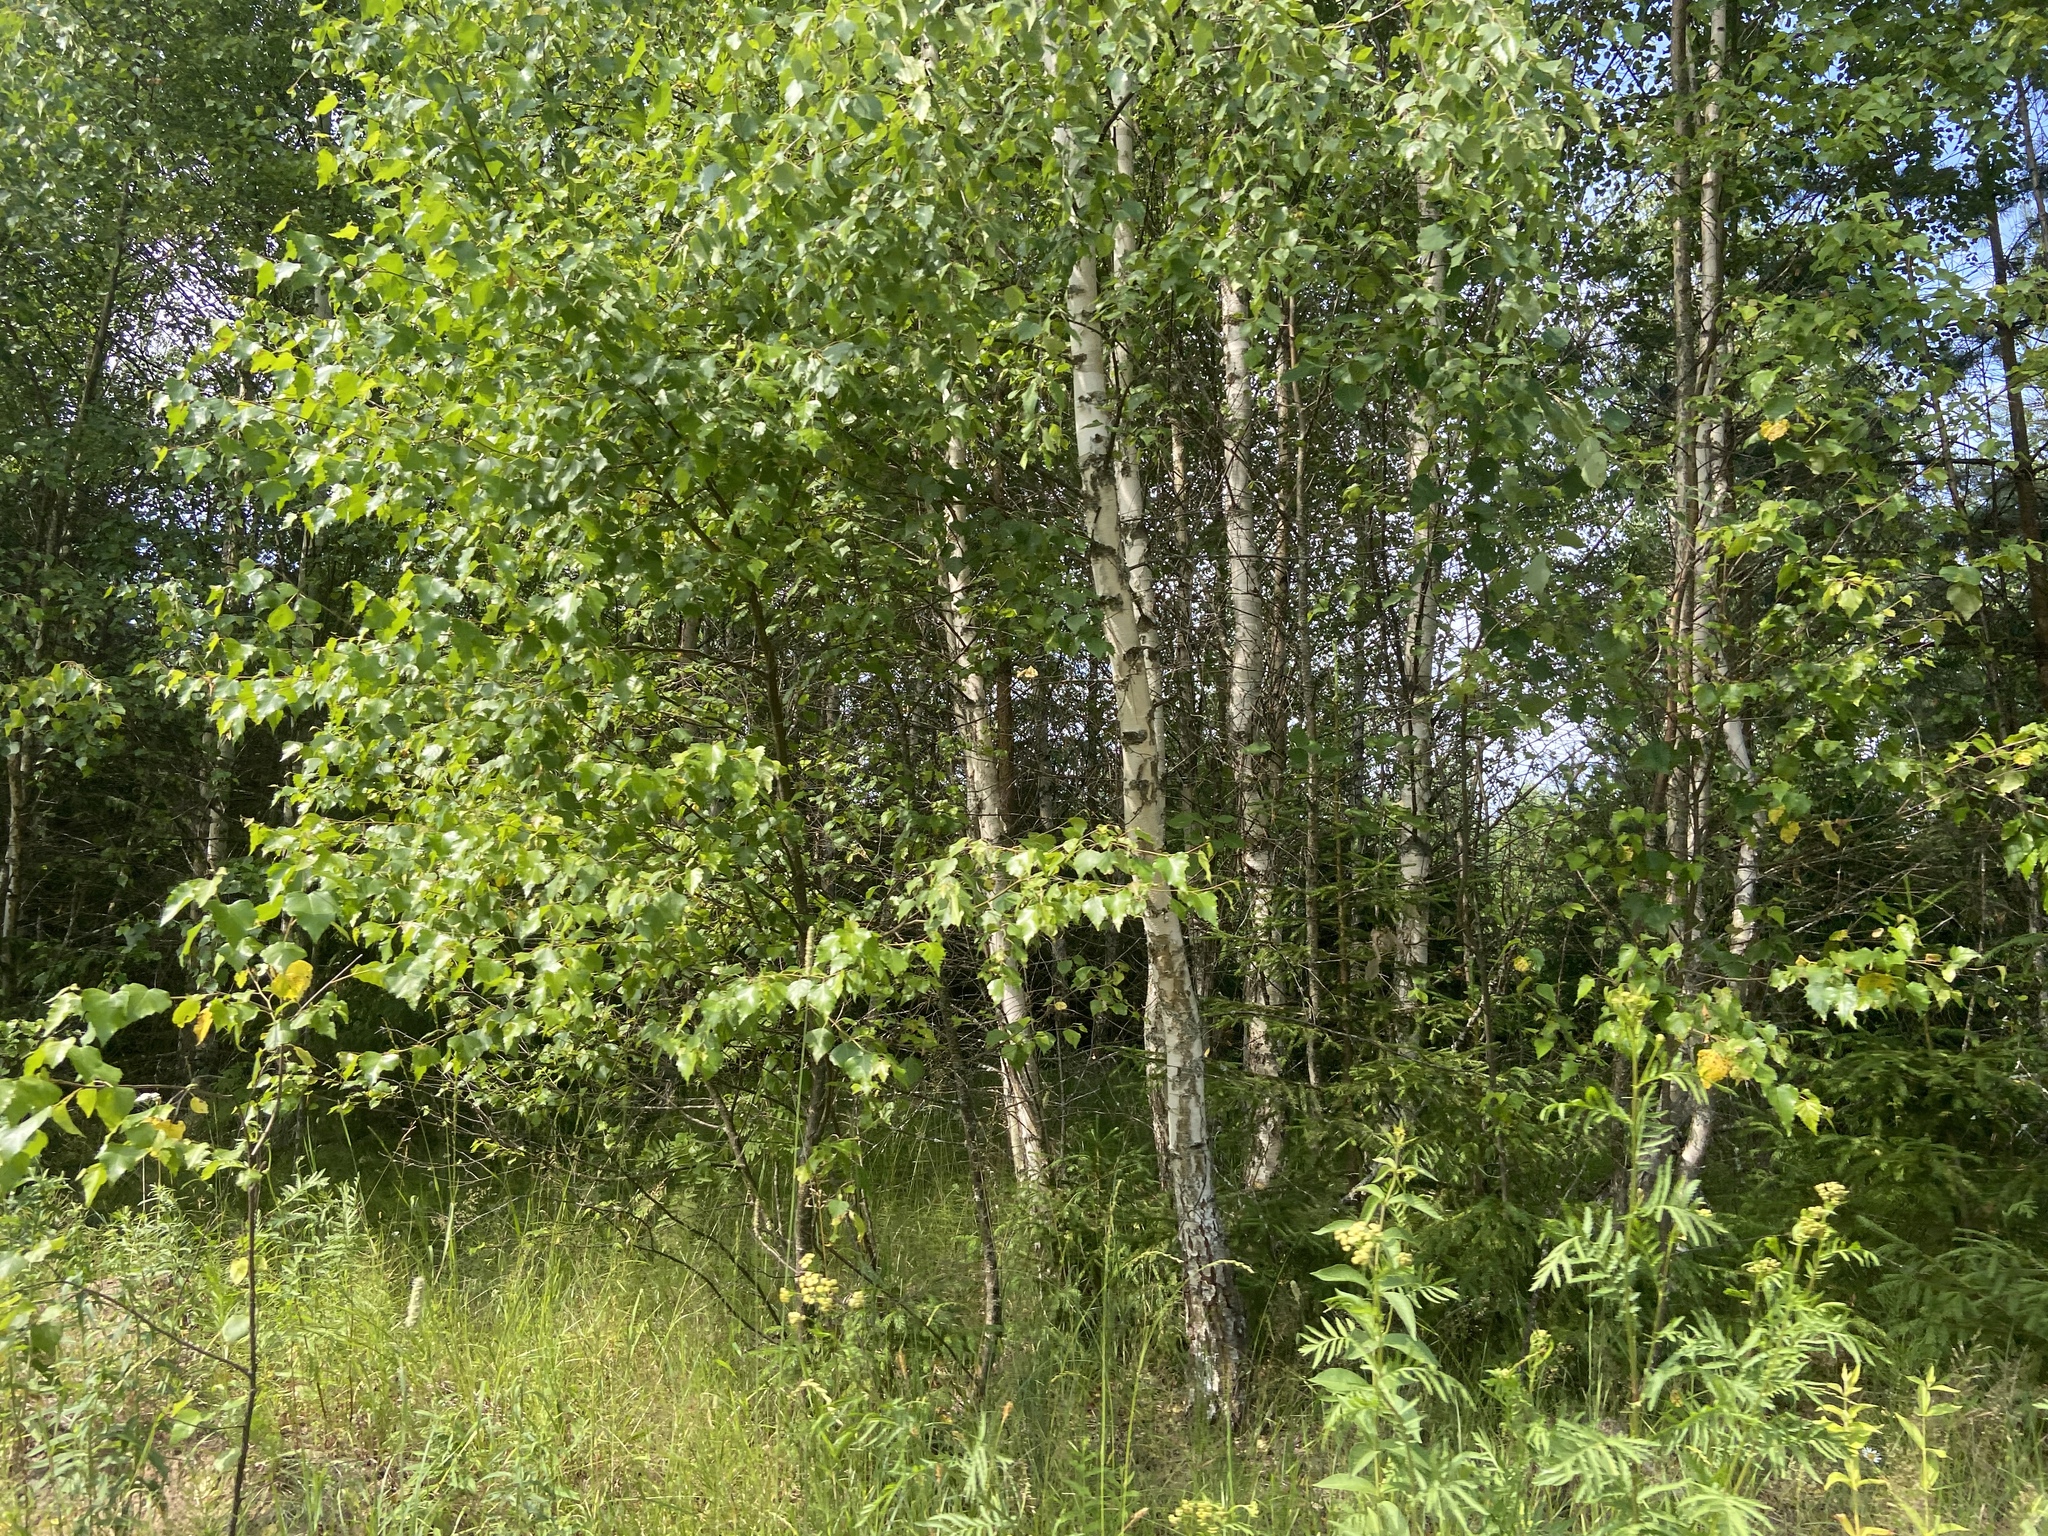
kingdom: Plantae
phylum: Tracheophyta
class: Magnoliopsida
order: Fagales
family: Betulaceae
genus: Betula
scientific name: Betula pendula
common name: Silver birch
